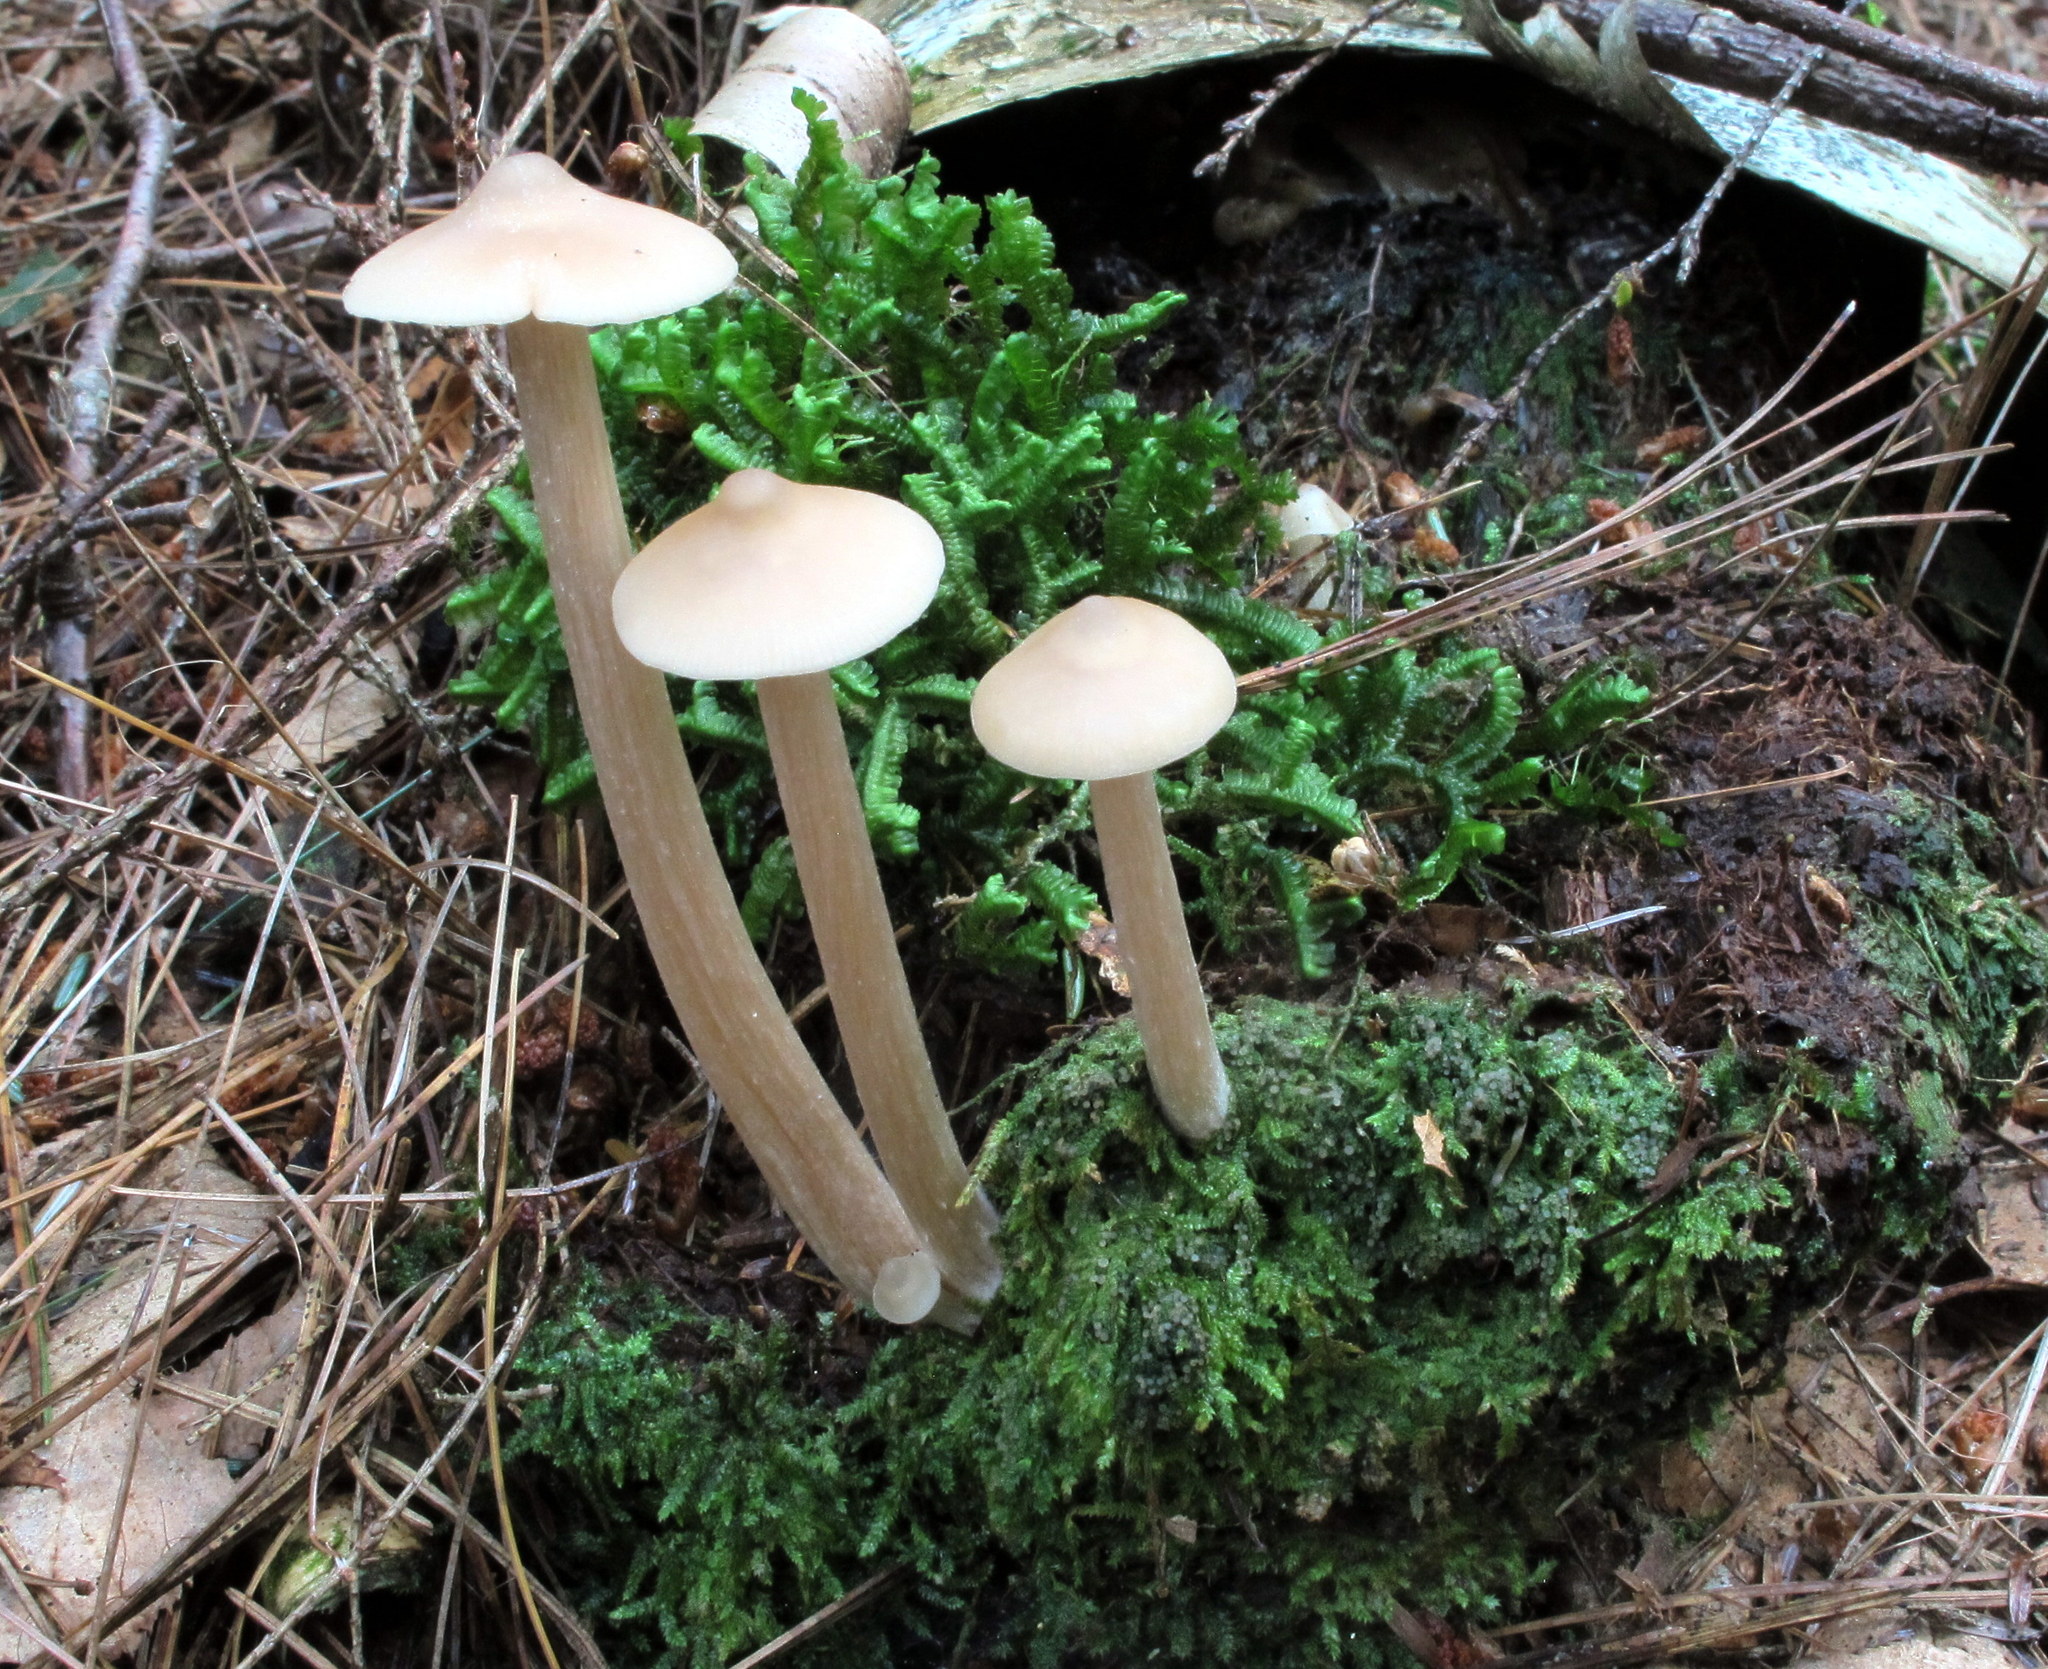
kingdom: Fungi
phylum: Basidiomycota
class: Agaricomycetes
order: Agaricales
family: Entolomataceae
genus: Entoloma
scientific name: Entoloma strictius
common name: Straight-stalked entoloma
